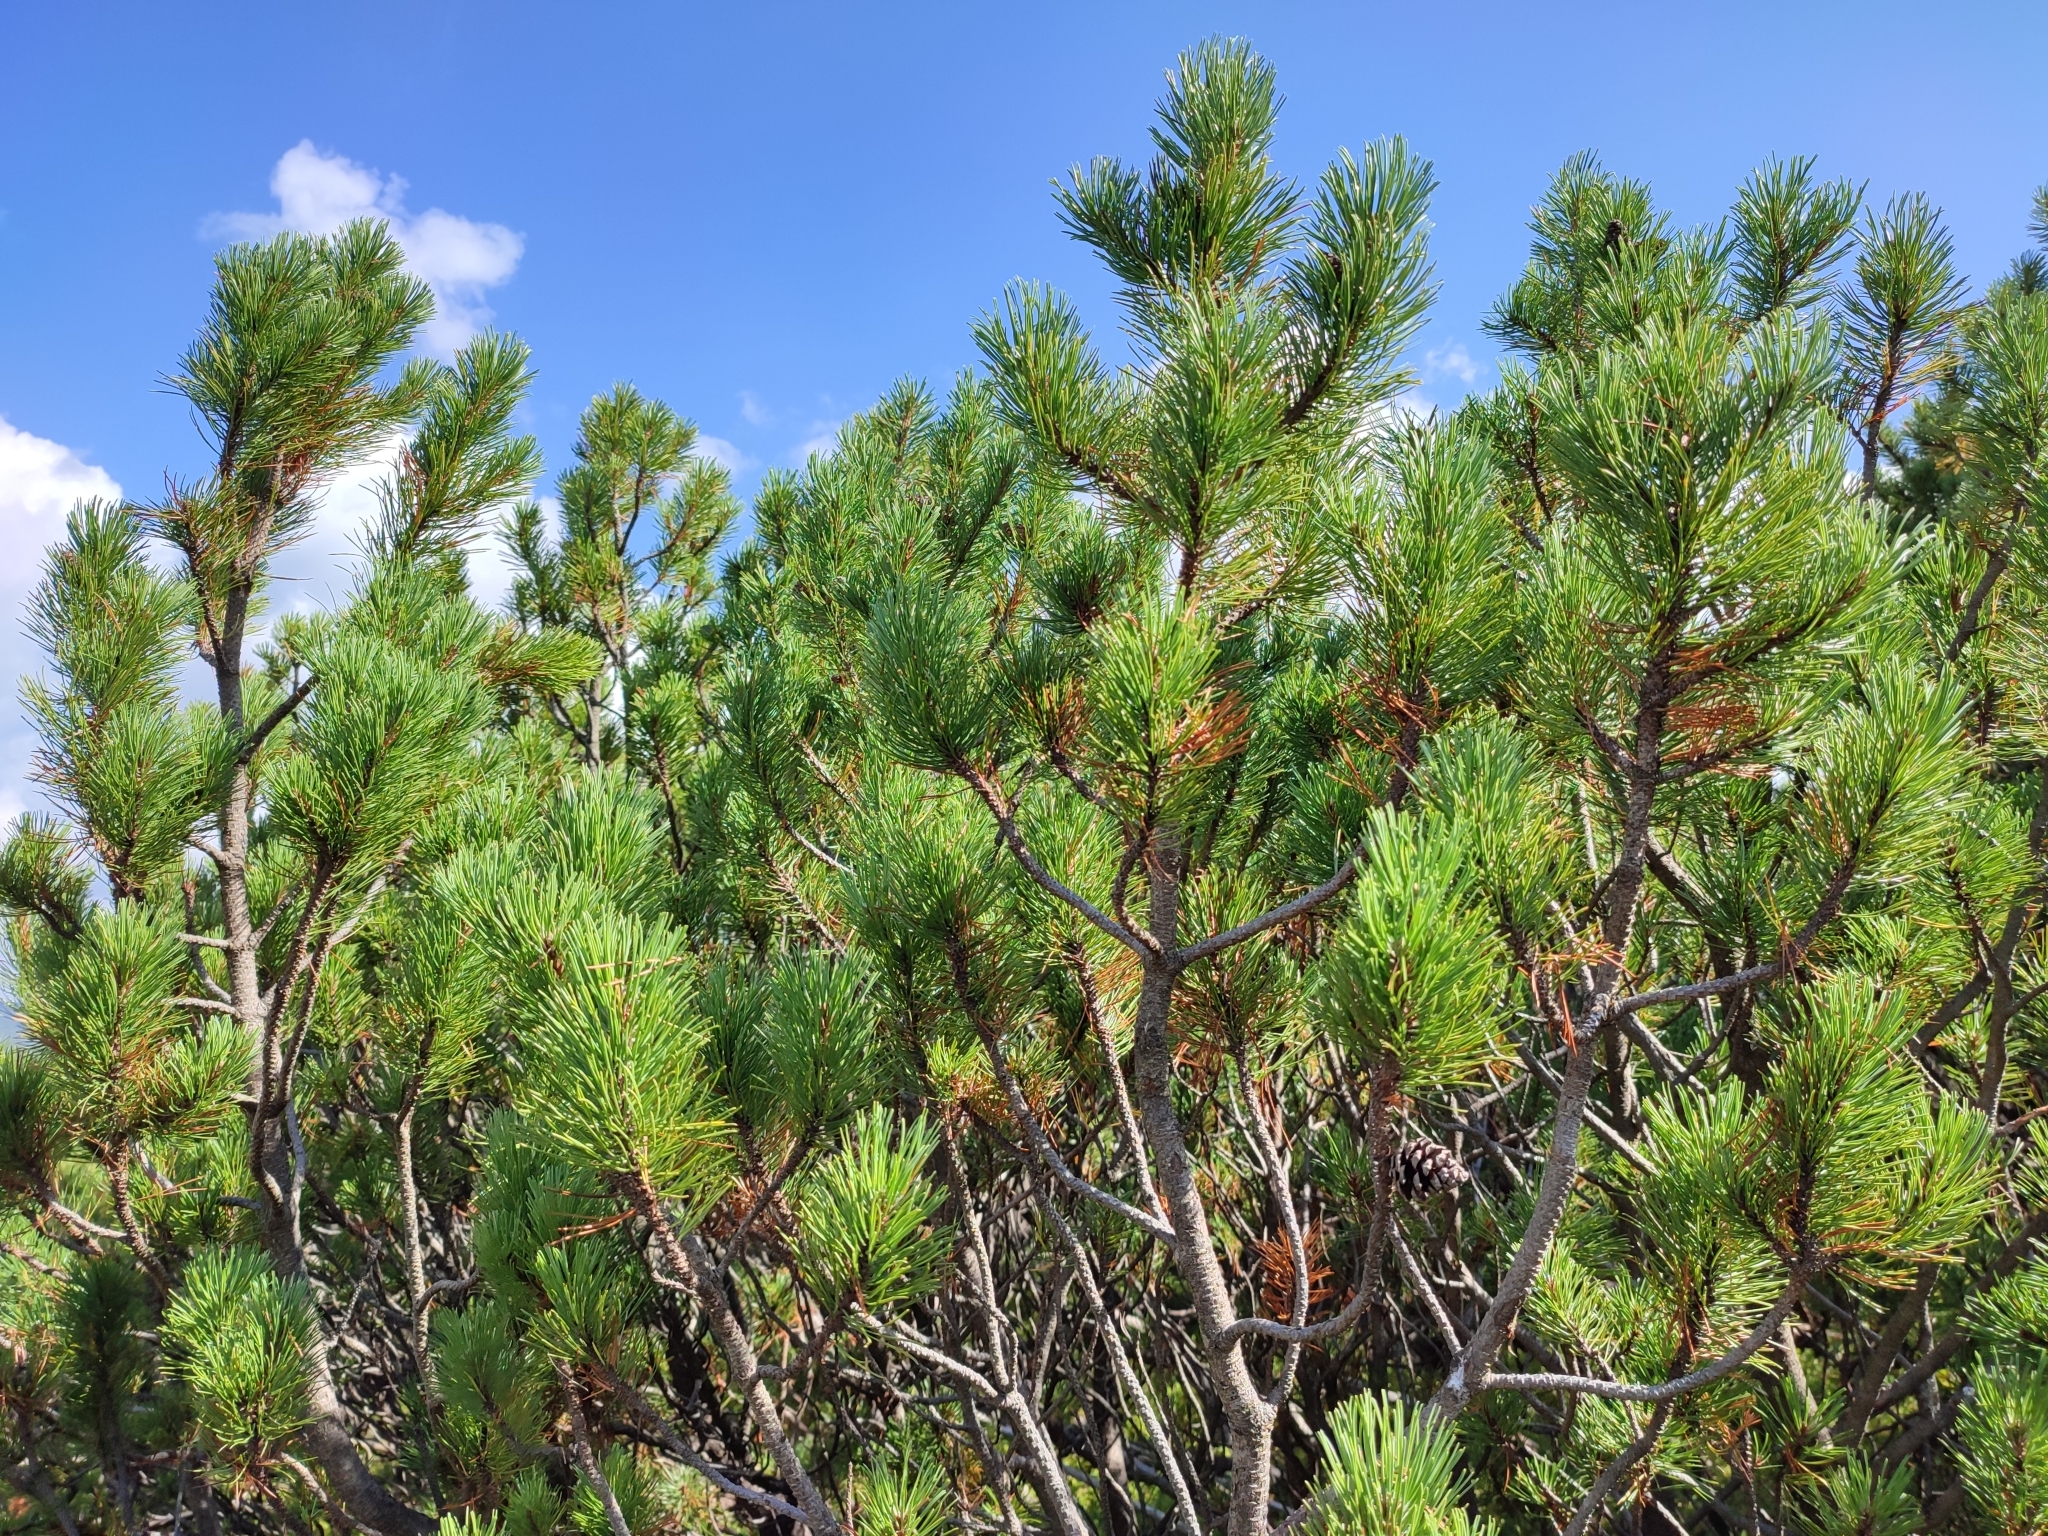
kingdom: Plantae
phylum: Tracheophyta
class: Pinopsida
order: Pinales
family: Pinaceae
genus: Pinus
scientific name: Pinus mugo
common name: Mugo pine
